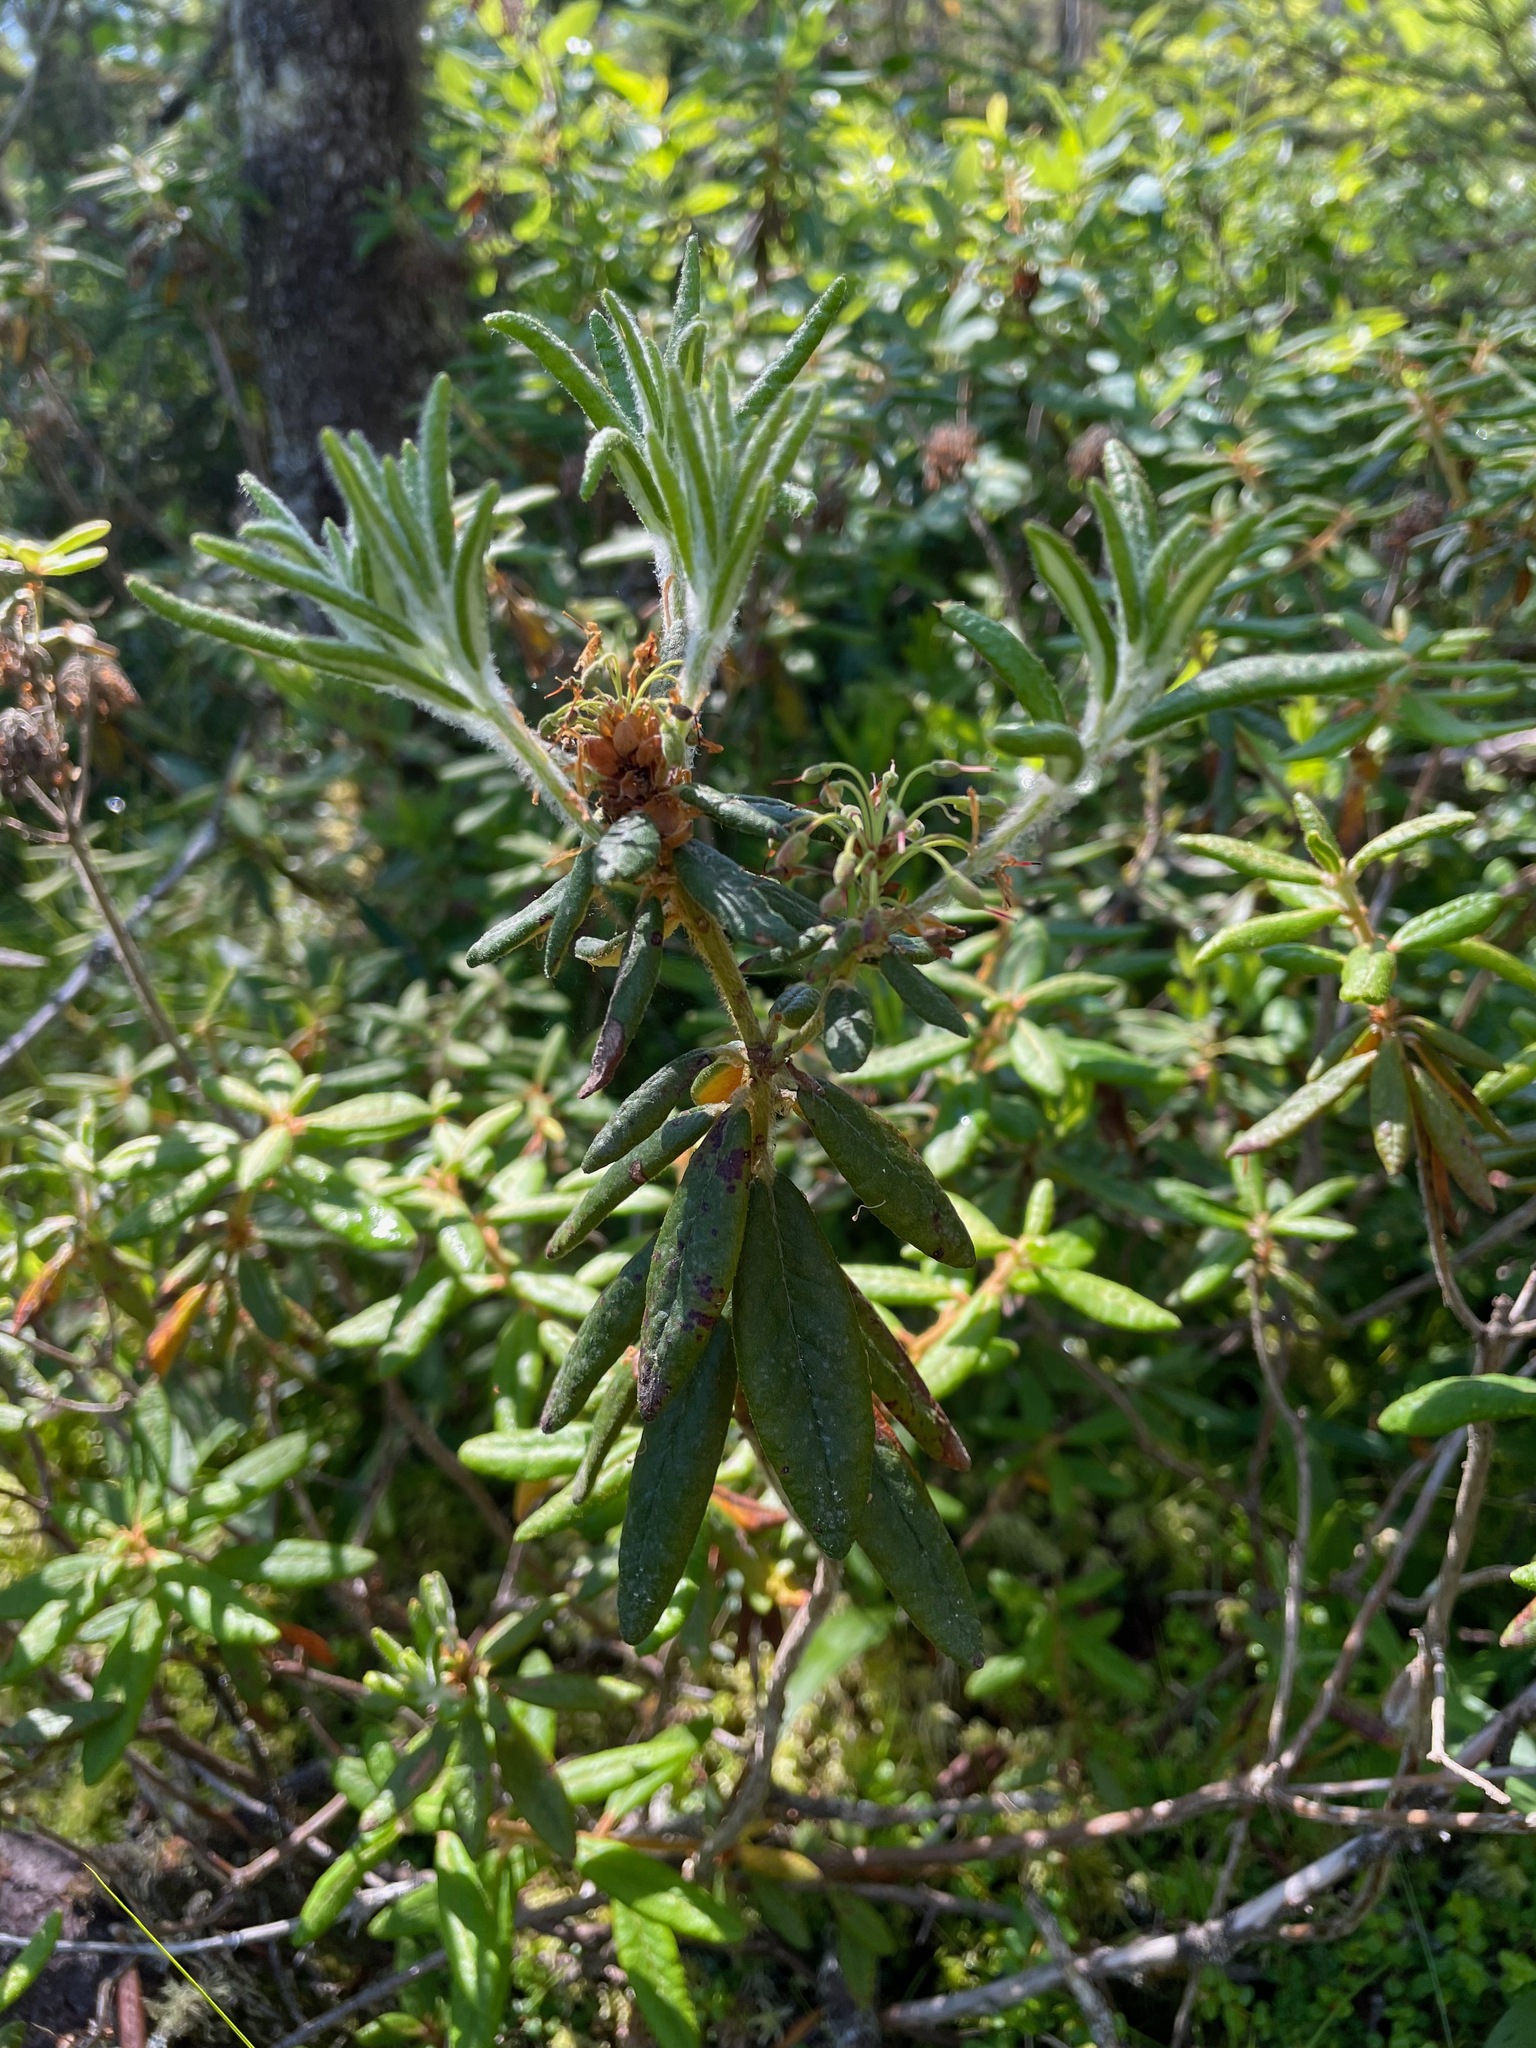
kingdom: Plantae
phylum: Tracheophyta
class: Magnoliopsida
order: Ericales
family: Ericaceae
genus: Rhododendron
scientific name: Rhododendron groenlandicum
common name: Bog labrador tea
